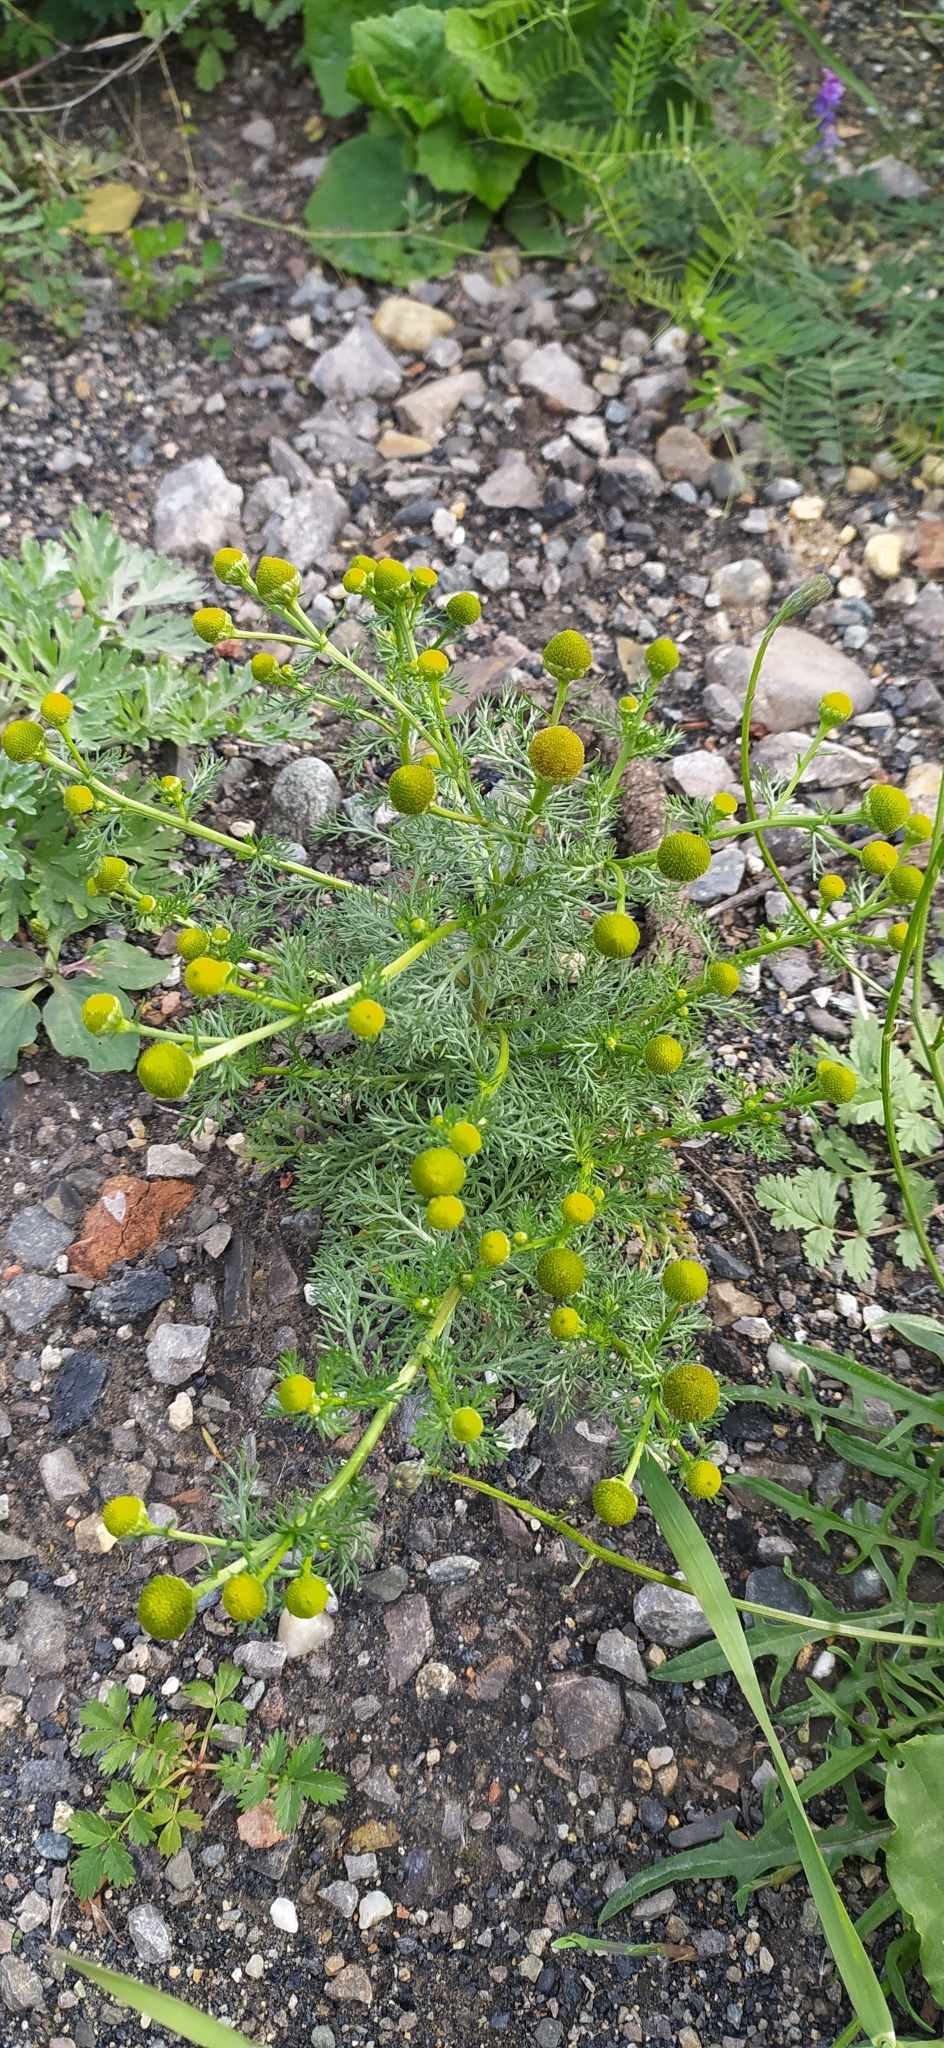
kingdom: Plantae
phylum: Tracheophyta
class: Magnoliopsida
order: Asterales
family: Asteraceae
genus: Matricaria
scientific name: Matricaria discoidea
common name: Disc mayweed
